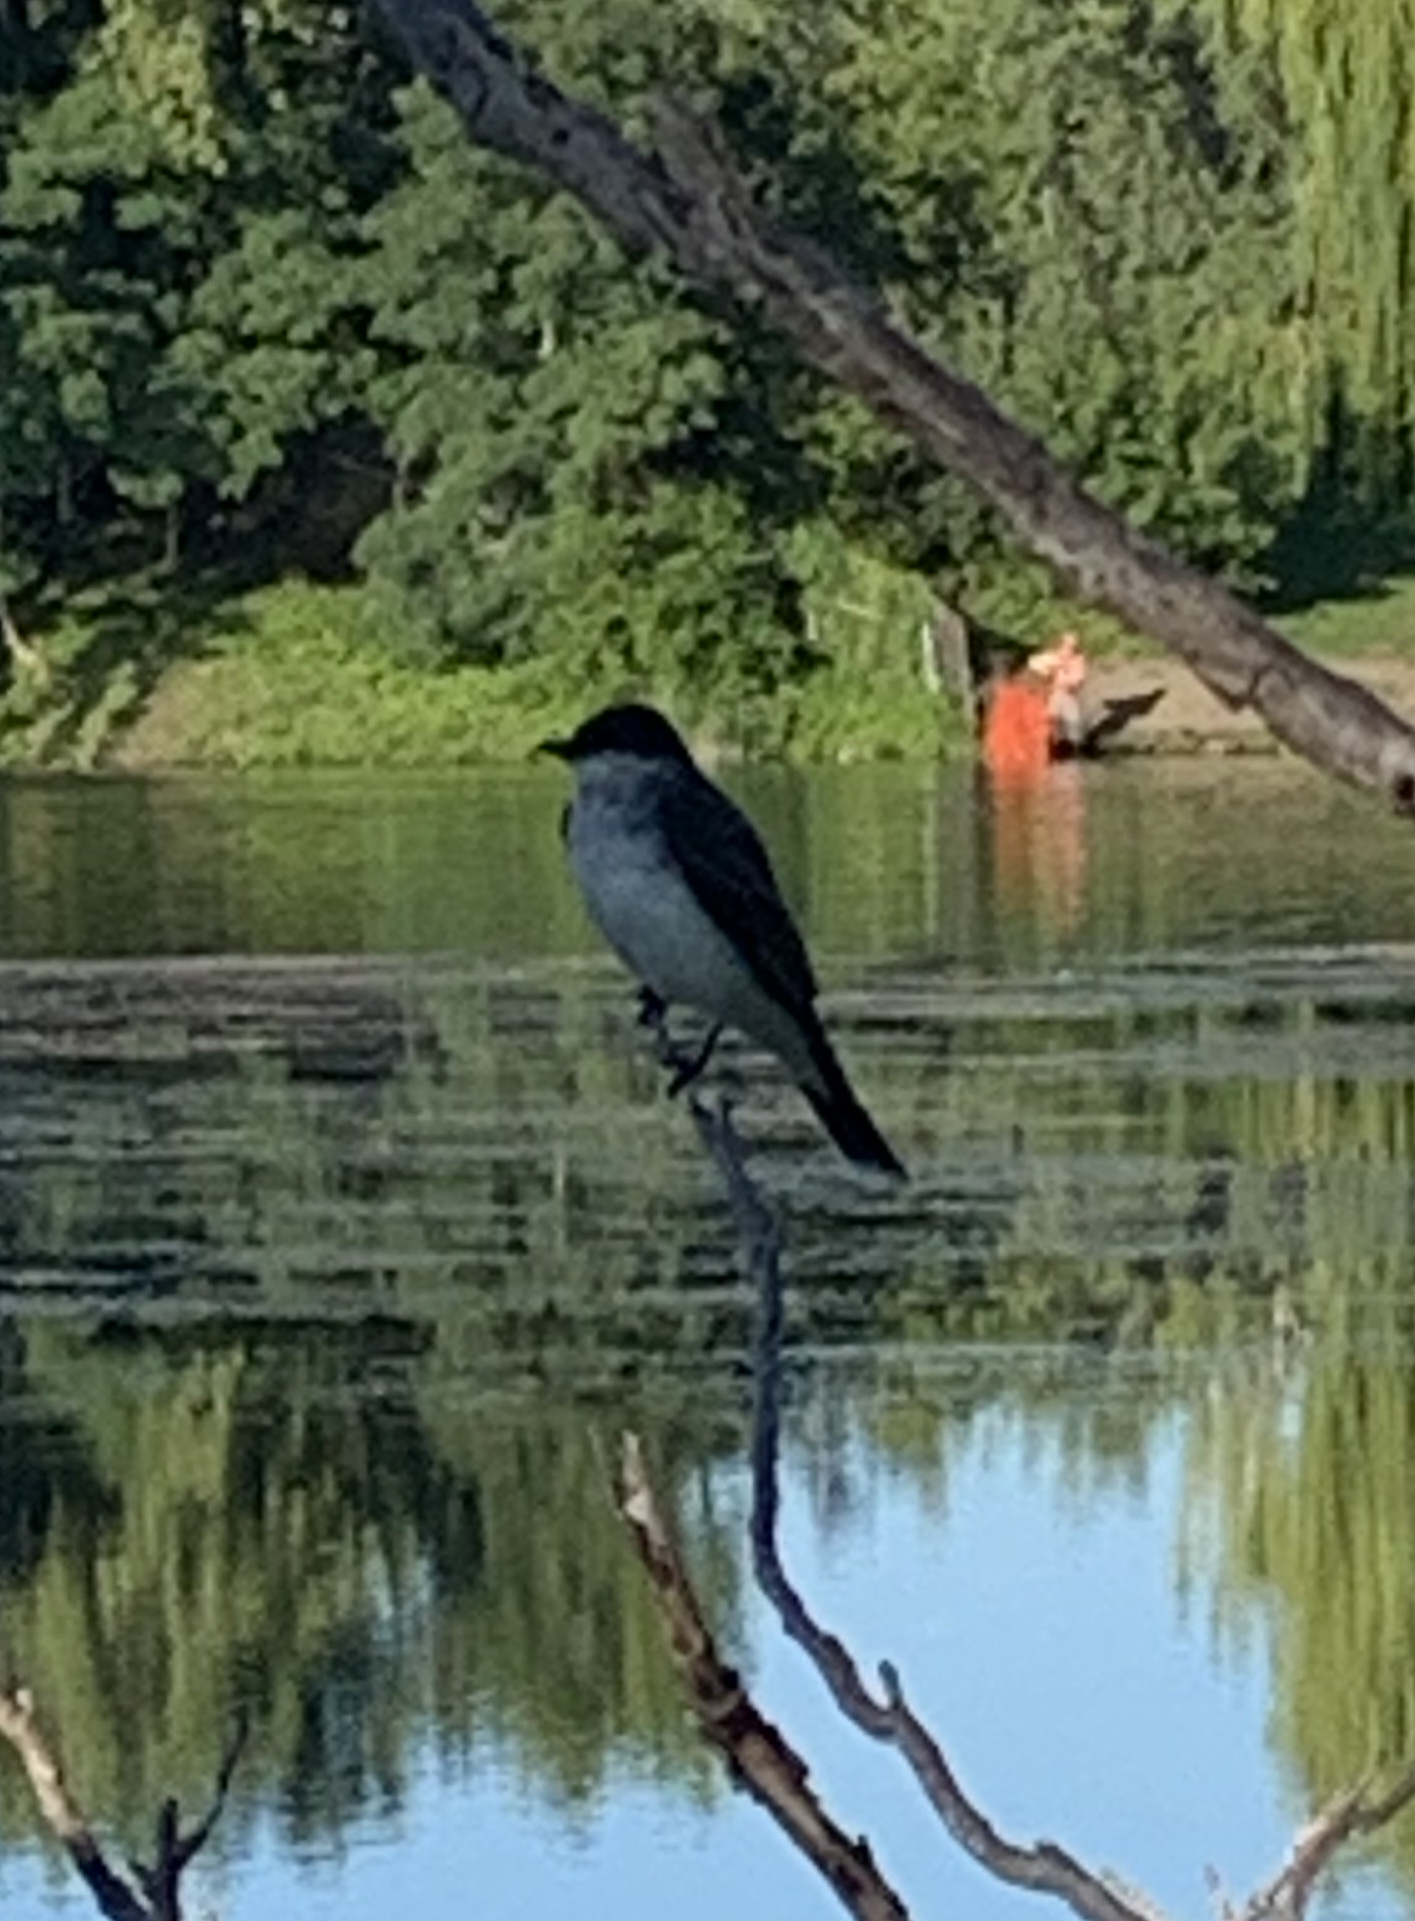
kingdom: Animalia
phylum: Chordata
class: Aves
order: Passeriformes
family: Tyrannidae
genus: Tyrannus
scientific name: Tyrannus tyrannus
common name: Eastern kingbird
